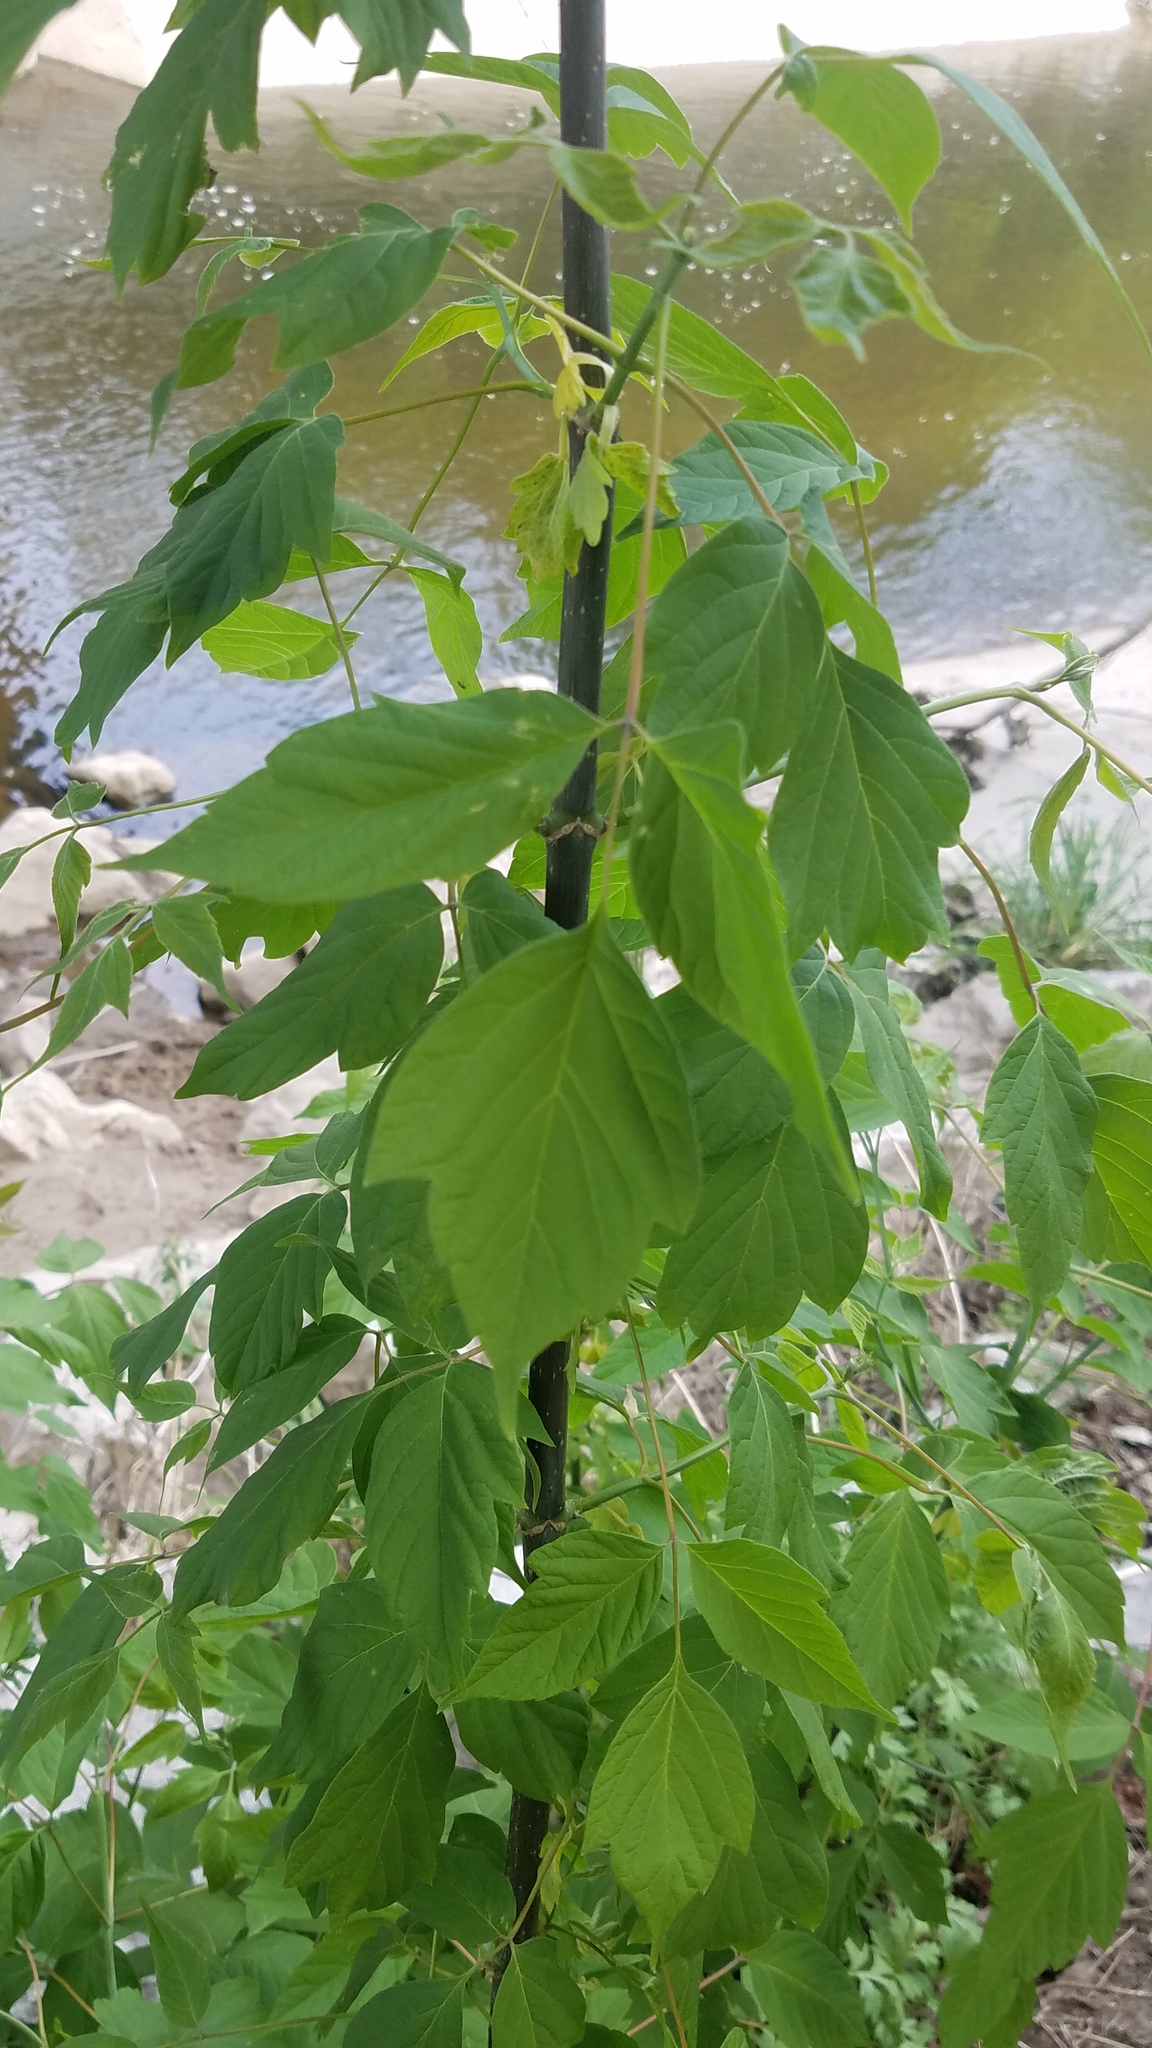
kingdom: Plantae
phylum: Tracheophyta
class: Magnoliopsida
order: Sapindales
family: Sapindaceae
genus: Acer
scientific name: Acer negundo
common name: Ashleaf maple
